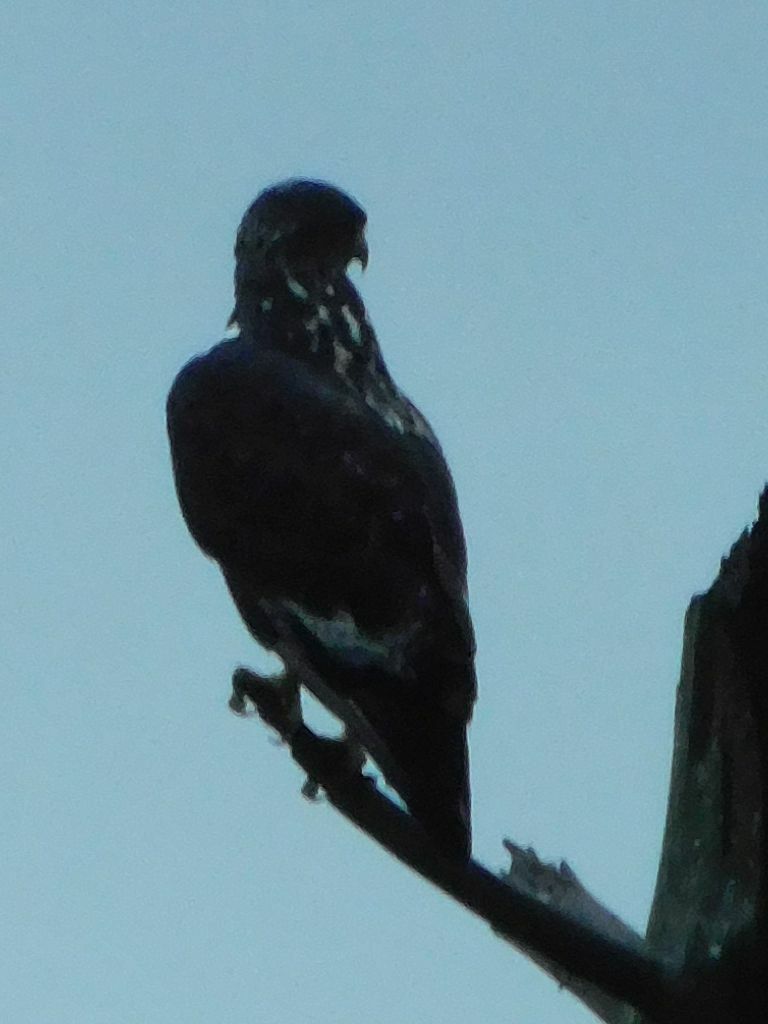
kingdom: Animalia
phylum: Chordata
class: Aves
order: Accipitriformes
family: Accipitridae
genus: Buteo
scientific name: Buteo rufofuscus
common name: Jackal buzzard
